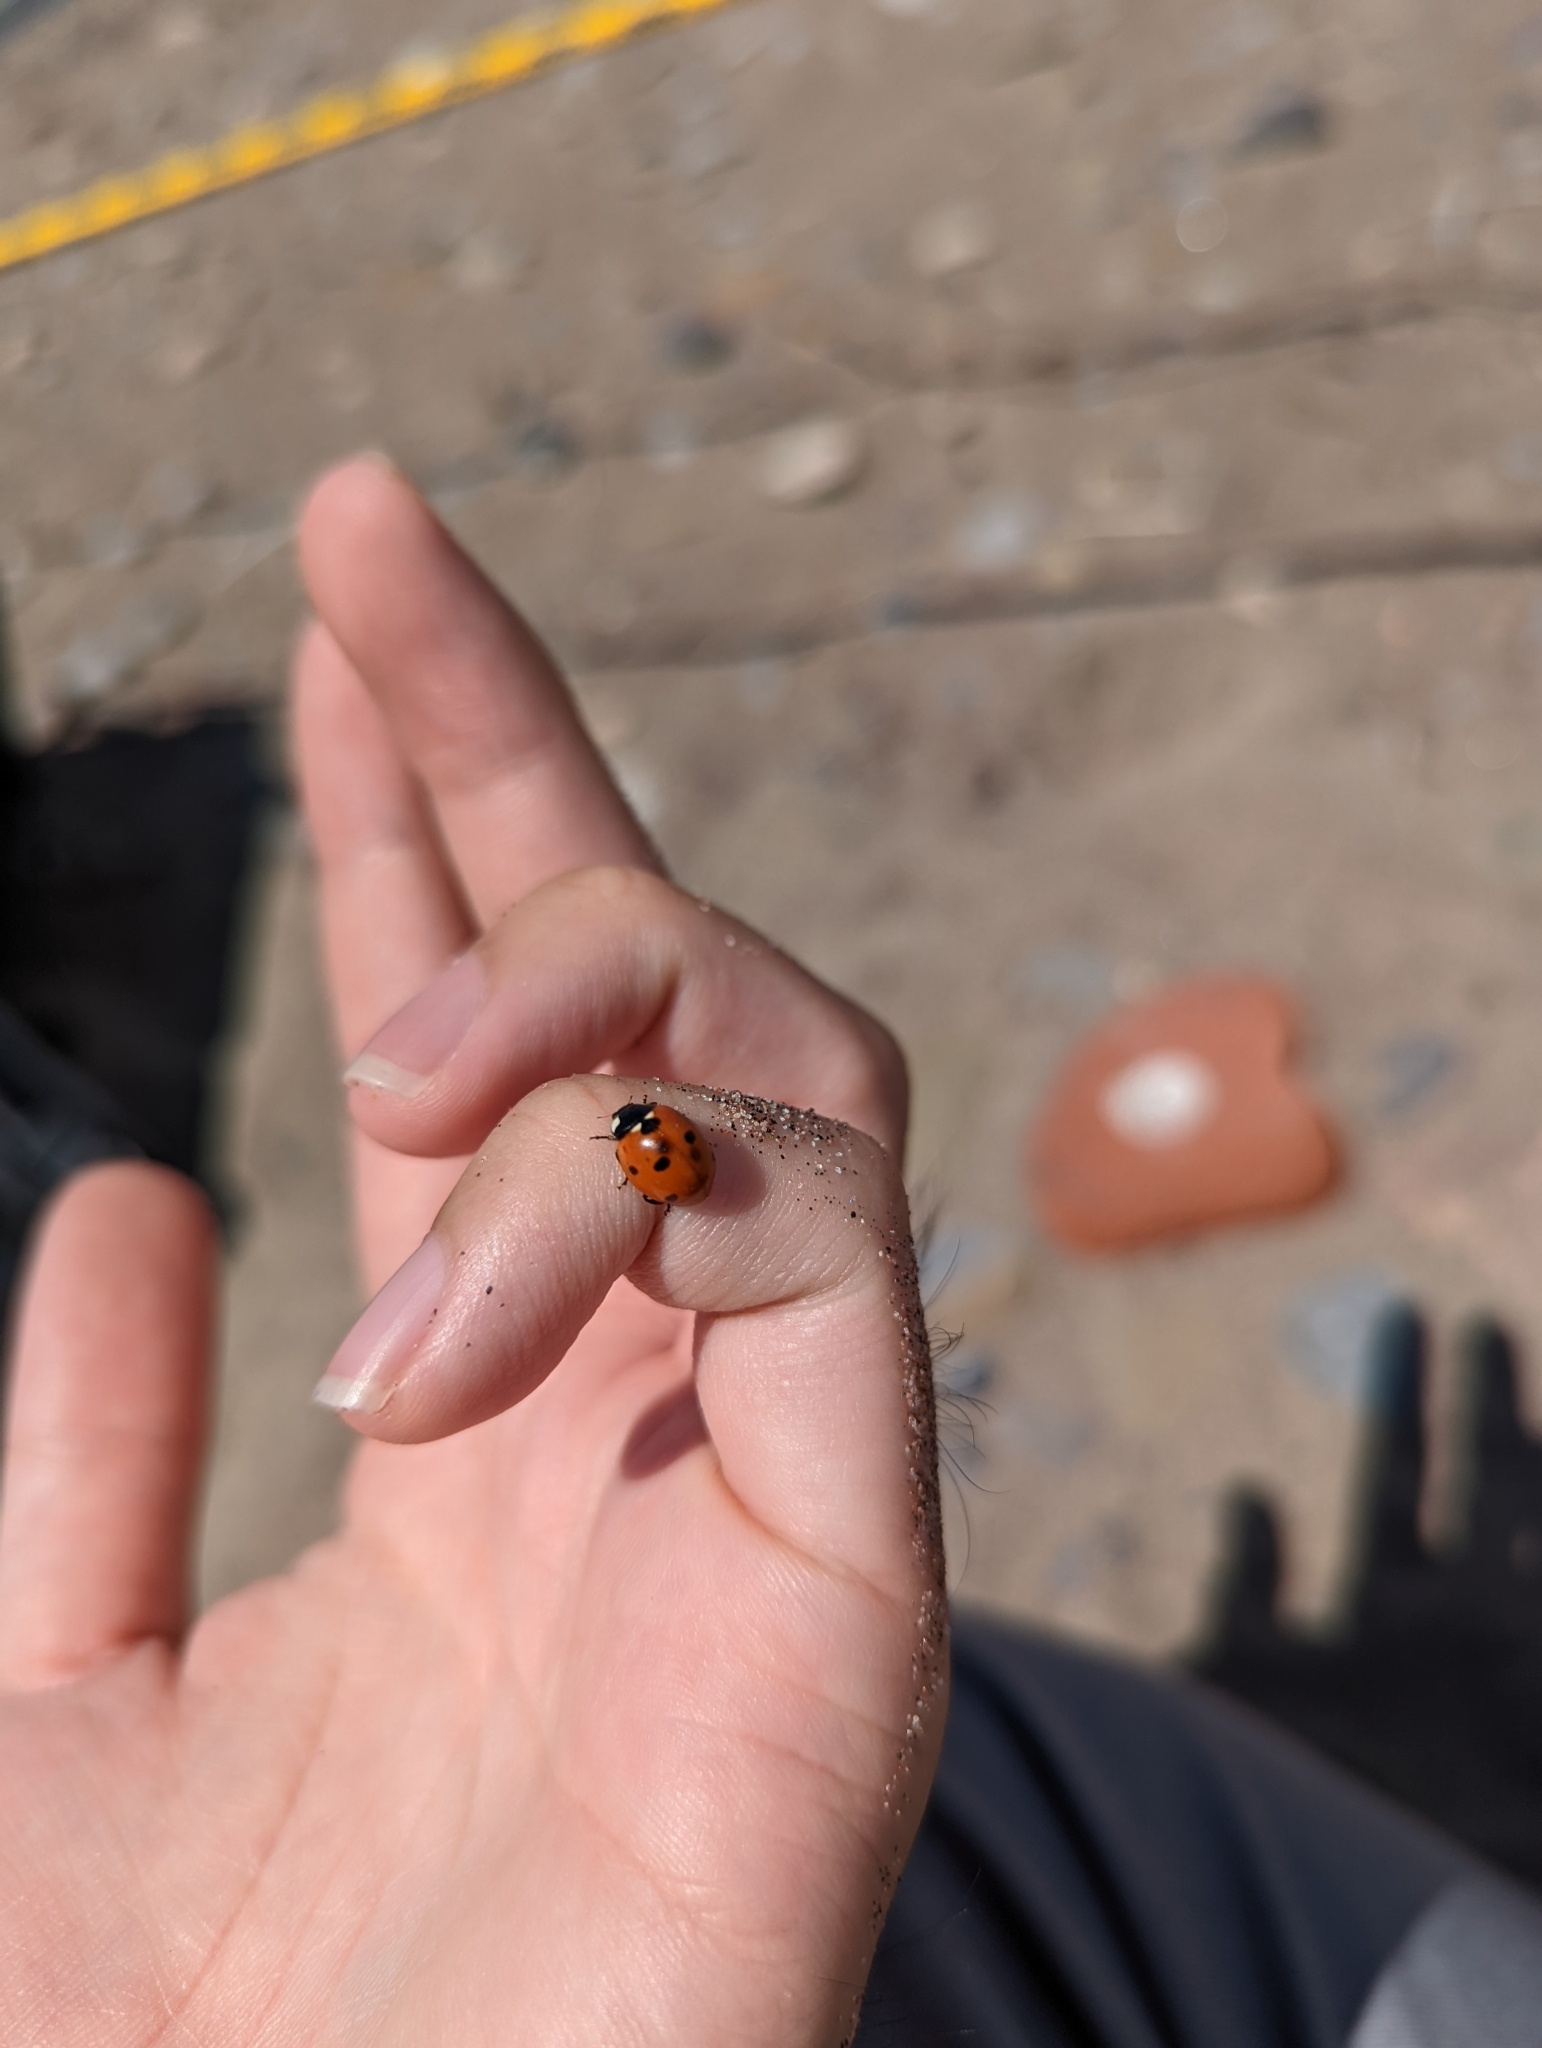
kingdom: Animalia
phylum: Arthropoda
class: Insecta
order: Coleoptera
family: Coccinellidae
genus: Coccinella
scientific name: Coccinella septempunctata
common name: Sevenspotted lady beetle
